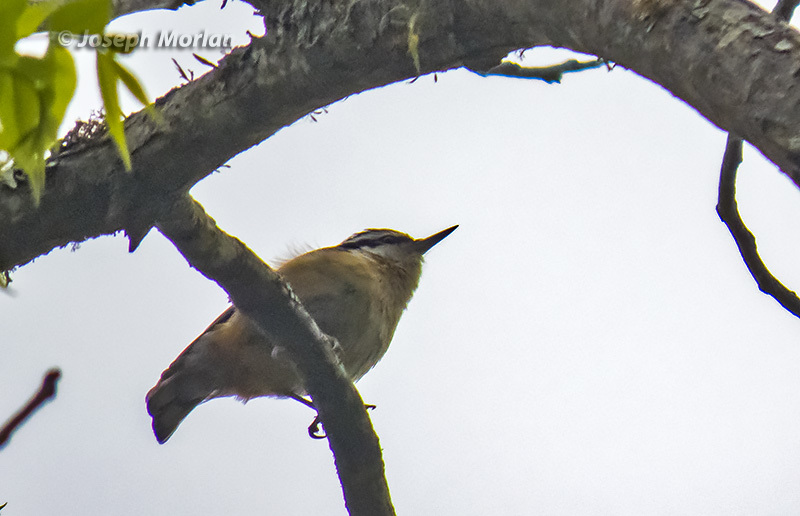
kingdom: Animalia
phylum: Chordata
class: Aves
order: Passeriformes
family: Sittidae
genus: Sitta
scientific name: Sitta canadensis
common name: Red-breasted nuthatch
